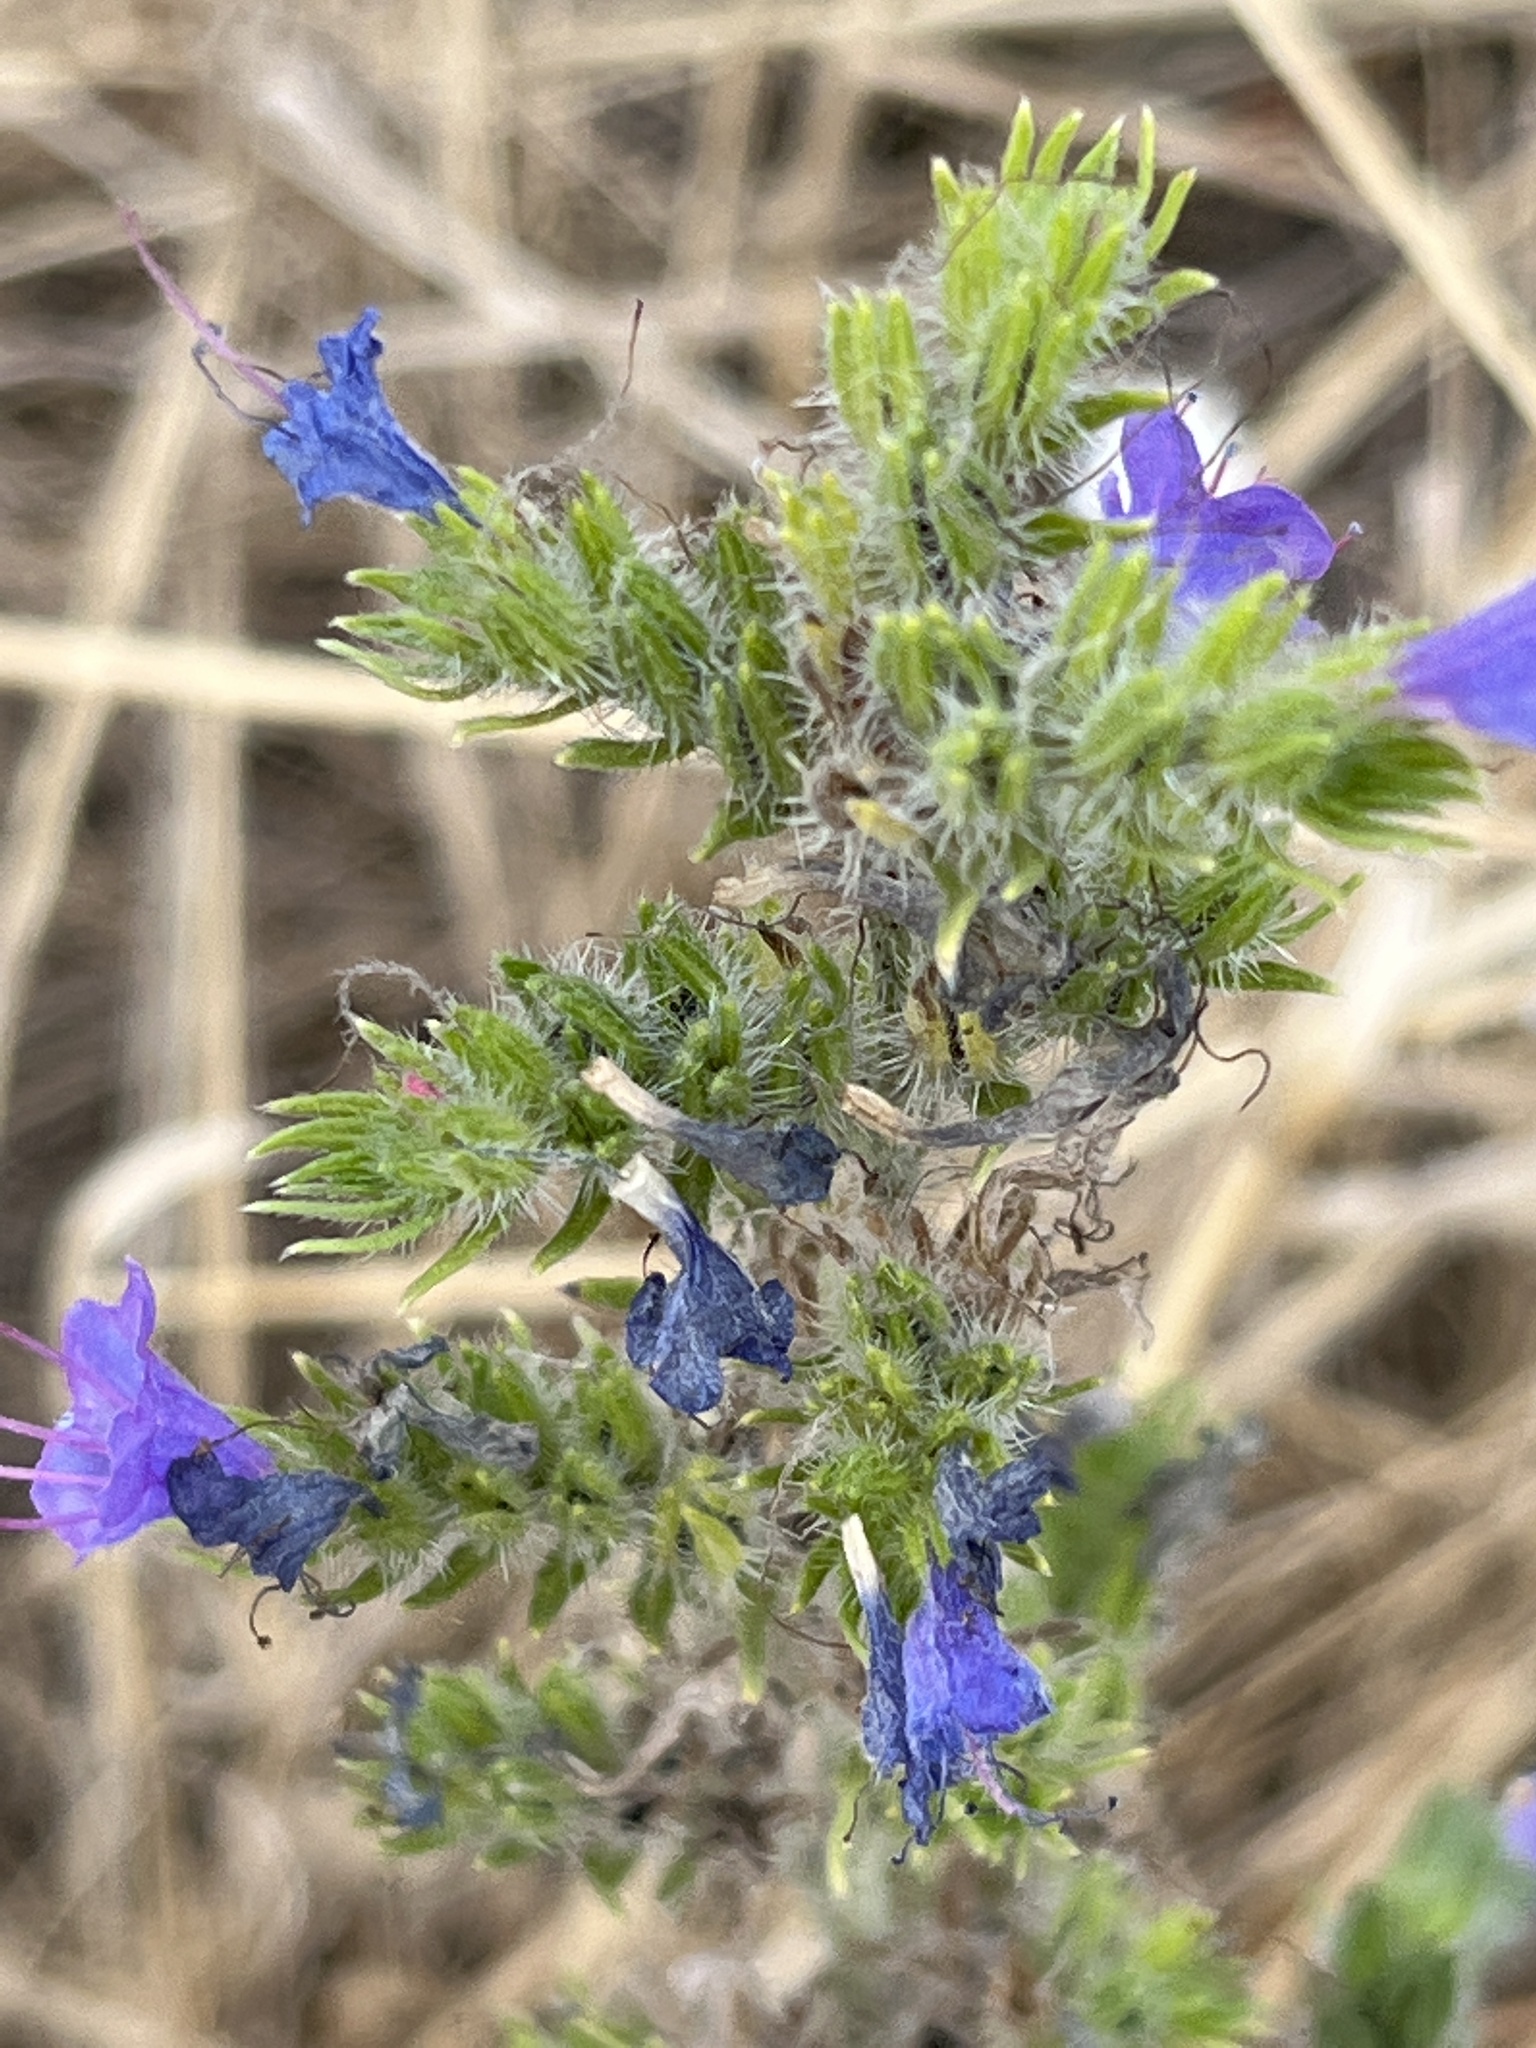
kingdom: Plantae
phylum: Tracheophyta
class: Magnoliopsida
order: Boraginales
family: Boraginaceae
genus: Echium
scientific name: Echium vulgare
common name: Common viper's bugloss
